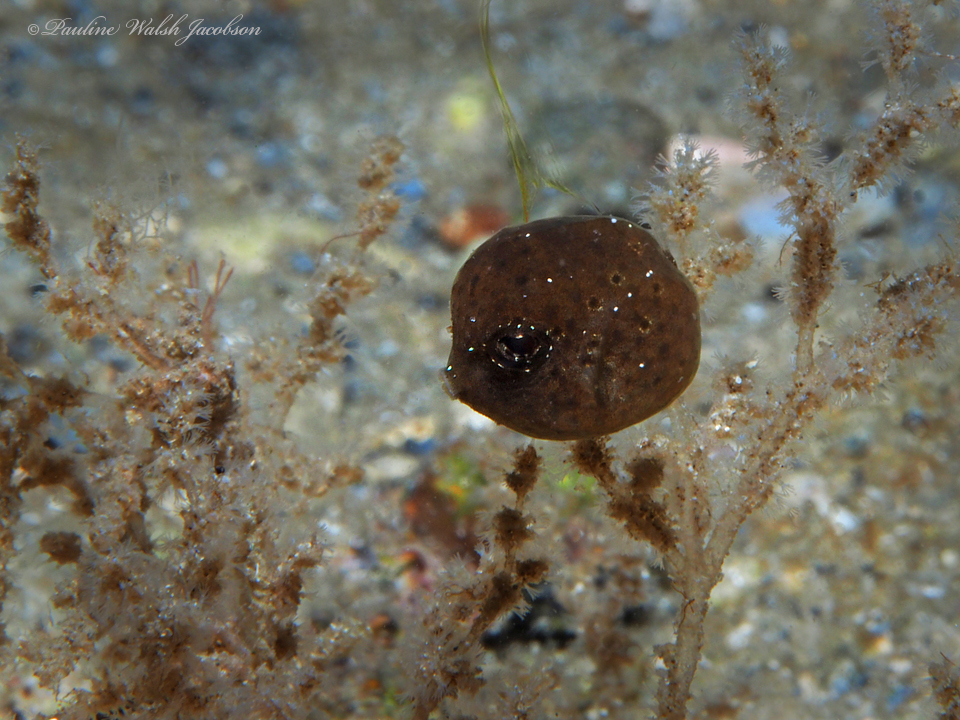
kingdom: Animalia
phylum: Chordata
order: Tetraodontiformes
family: Ostraciidae
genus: Lactophrys
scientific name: Lactophrys trigonus
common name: Buffalo trunkfish
